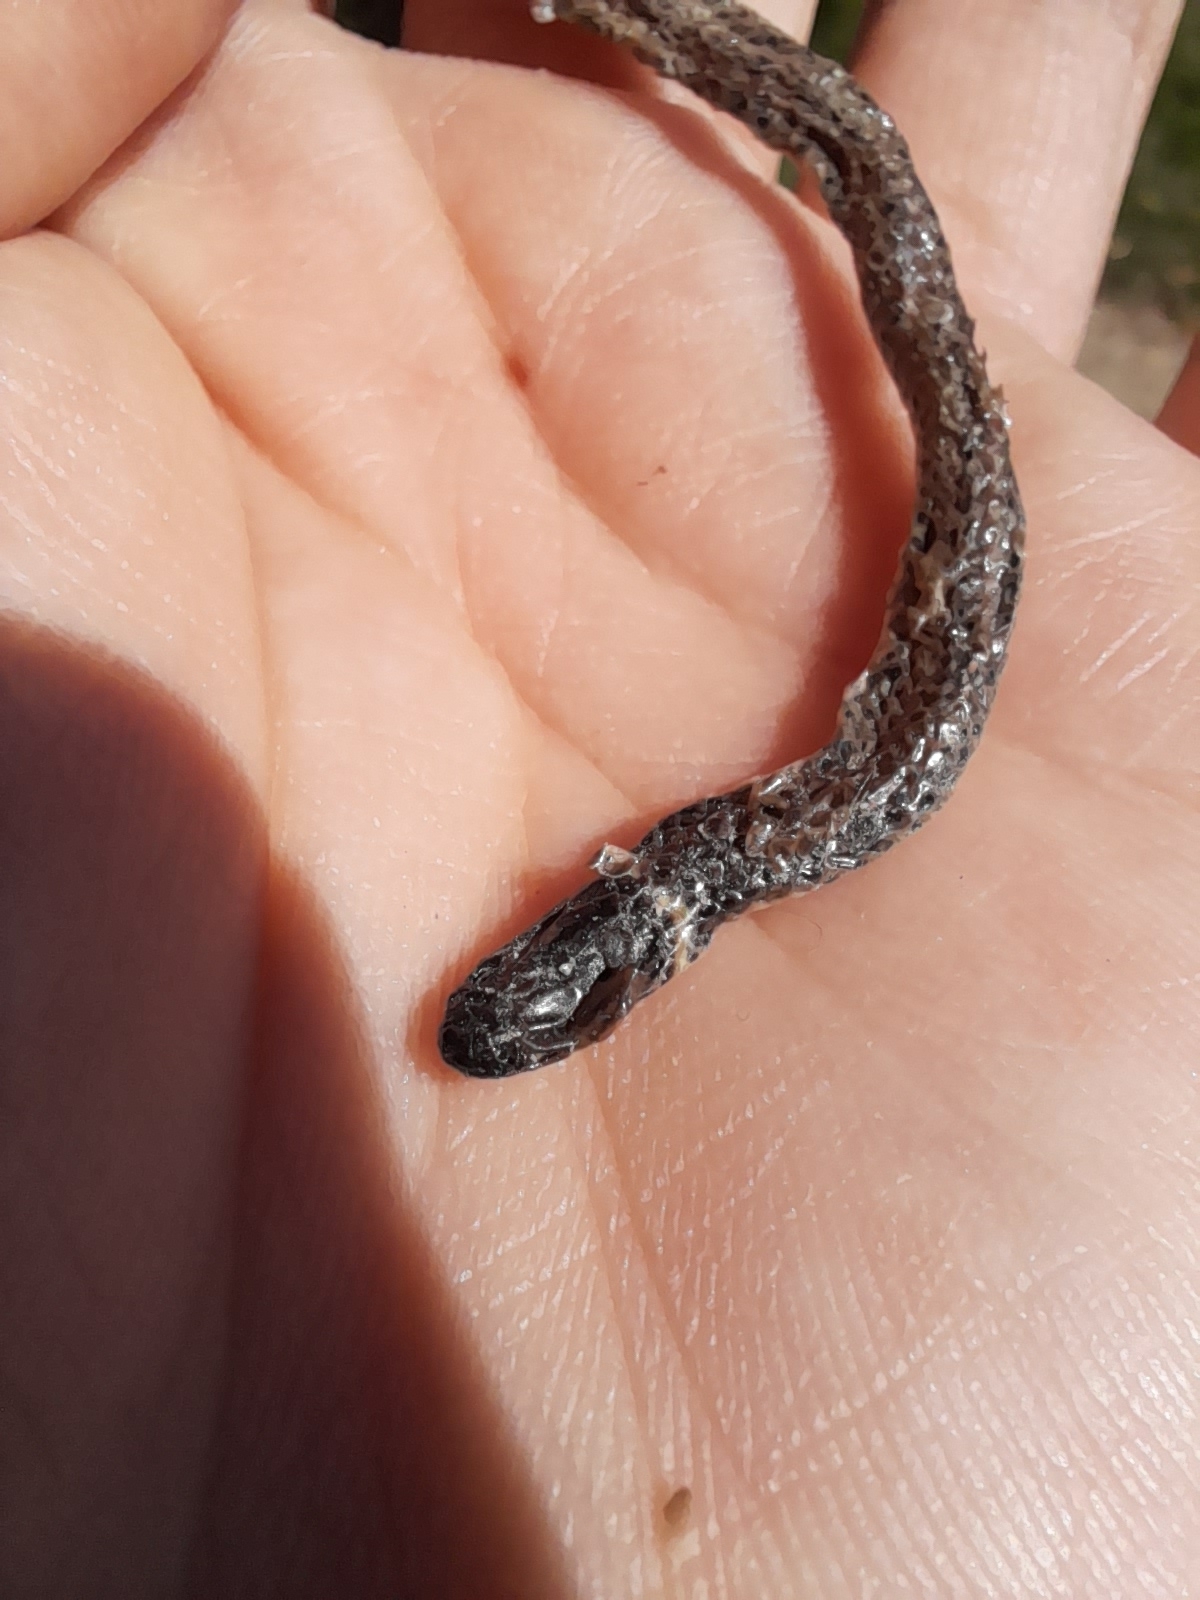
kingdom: Animalia
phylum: Chordata
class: Squamata
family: Colubridae
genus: Phalotris
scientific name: Phalotris lemniscatus
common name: Dumeril's diadem snake
